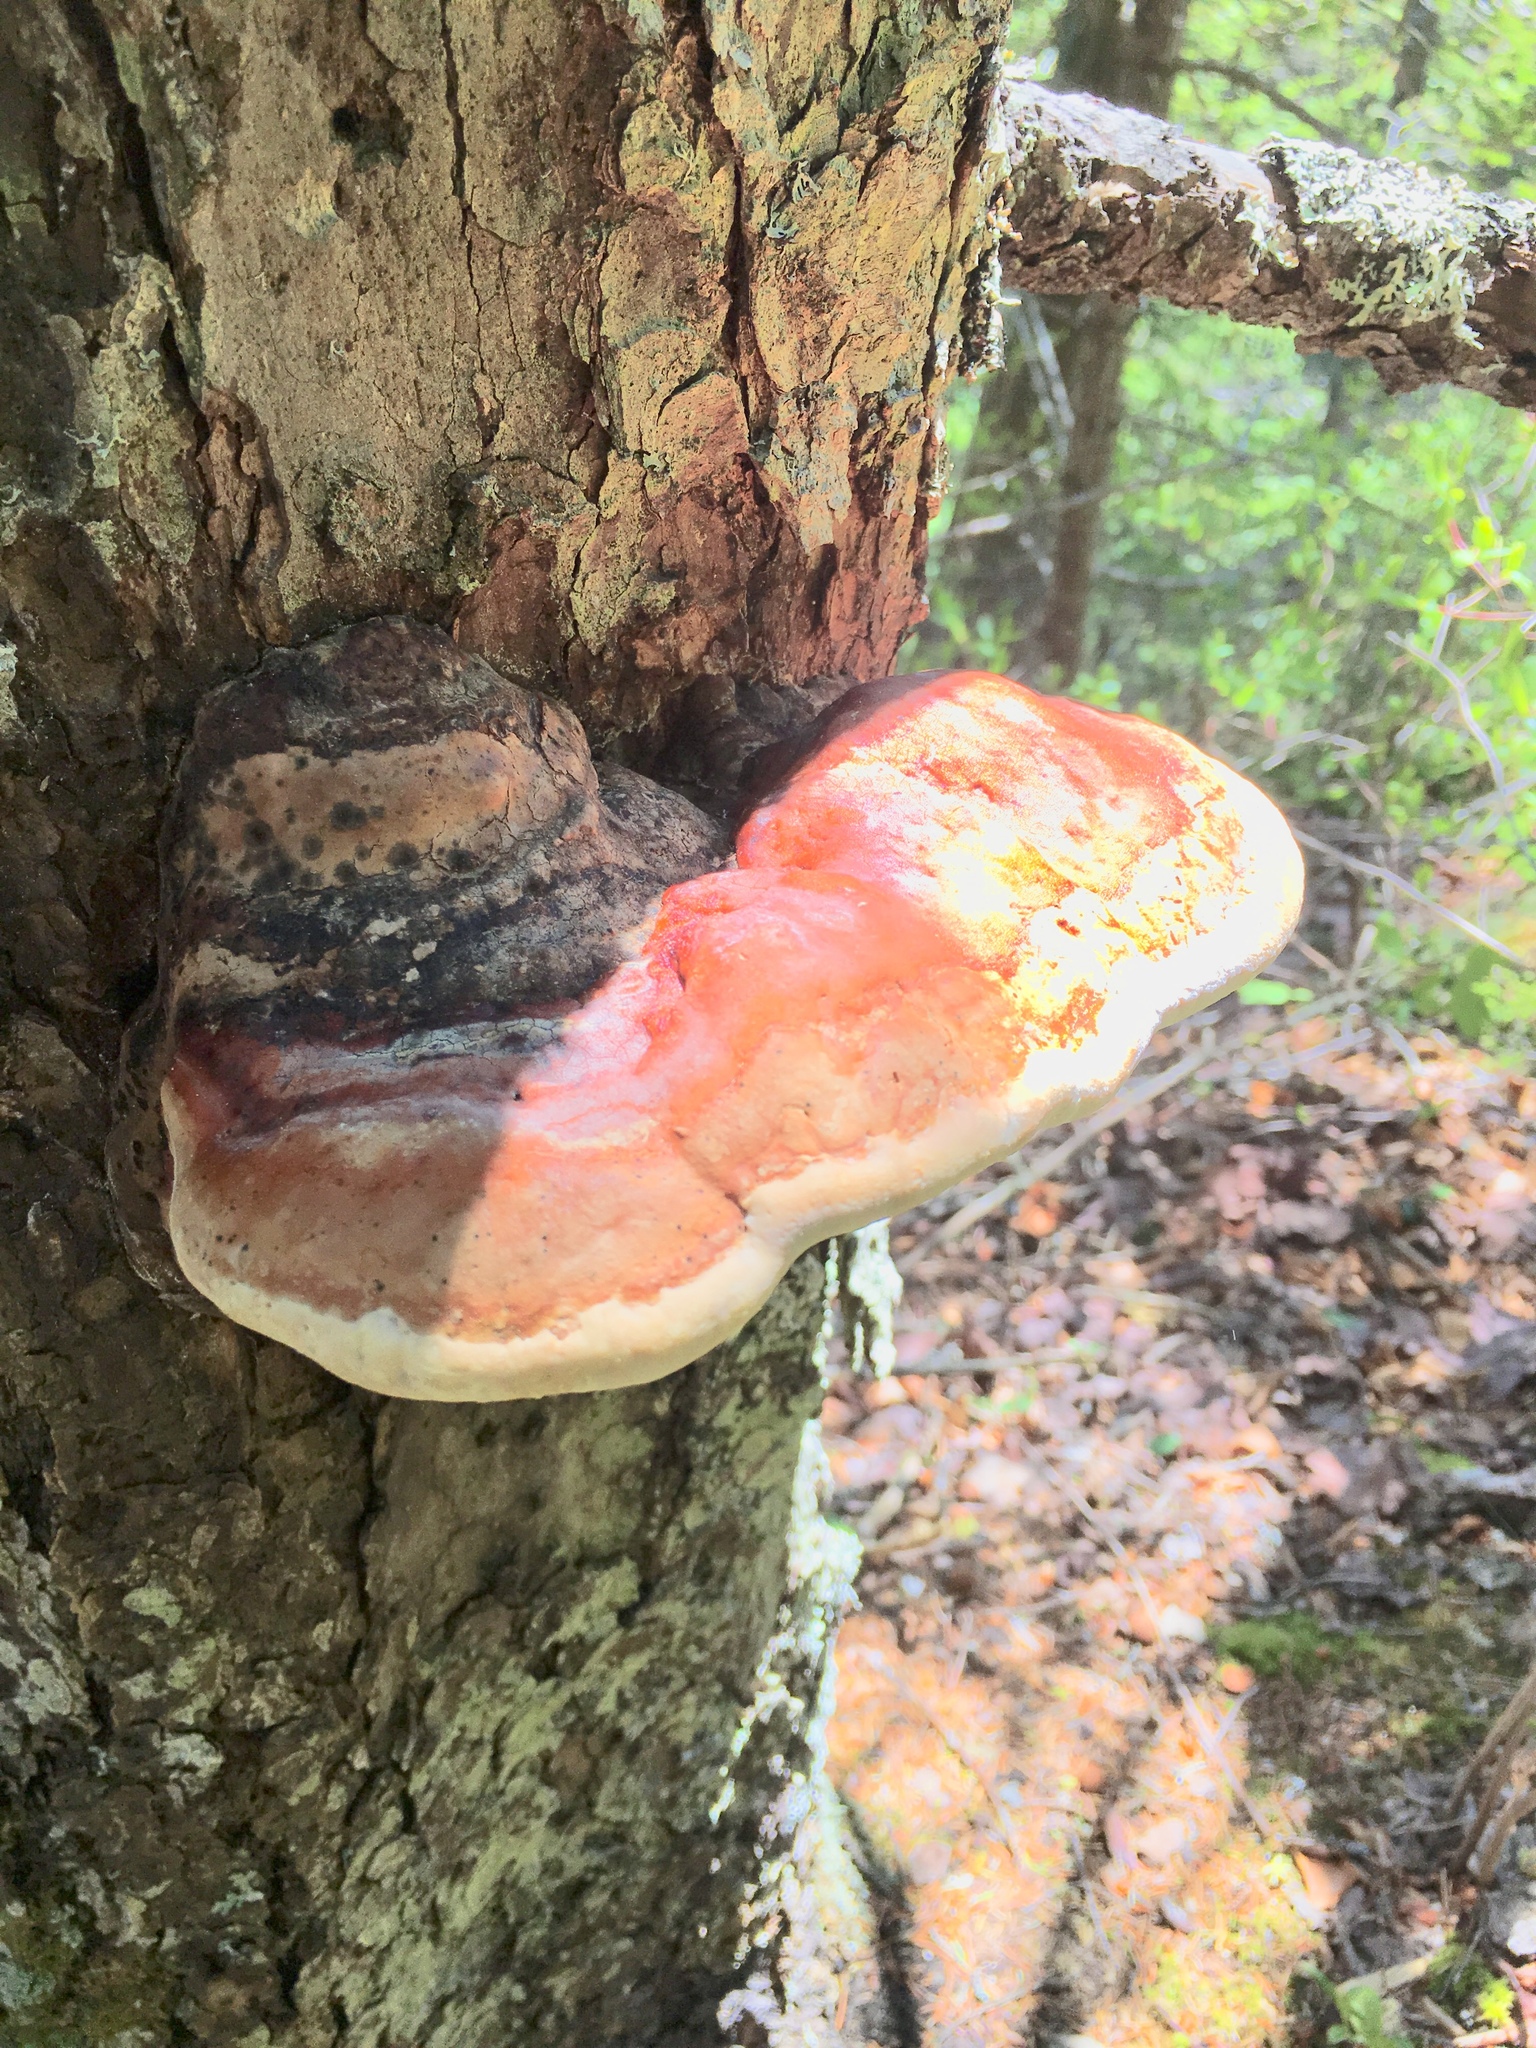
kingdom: Fungi
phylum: Basidiomycota
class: Agaricomycetes
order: Polyporales
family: Fomitopsidaceae
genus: Fomitopsis
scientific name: Fomitopsis mounceae
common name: Northern red belt
